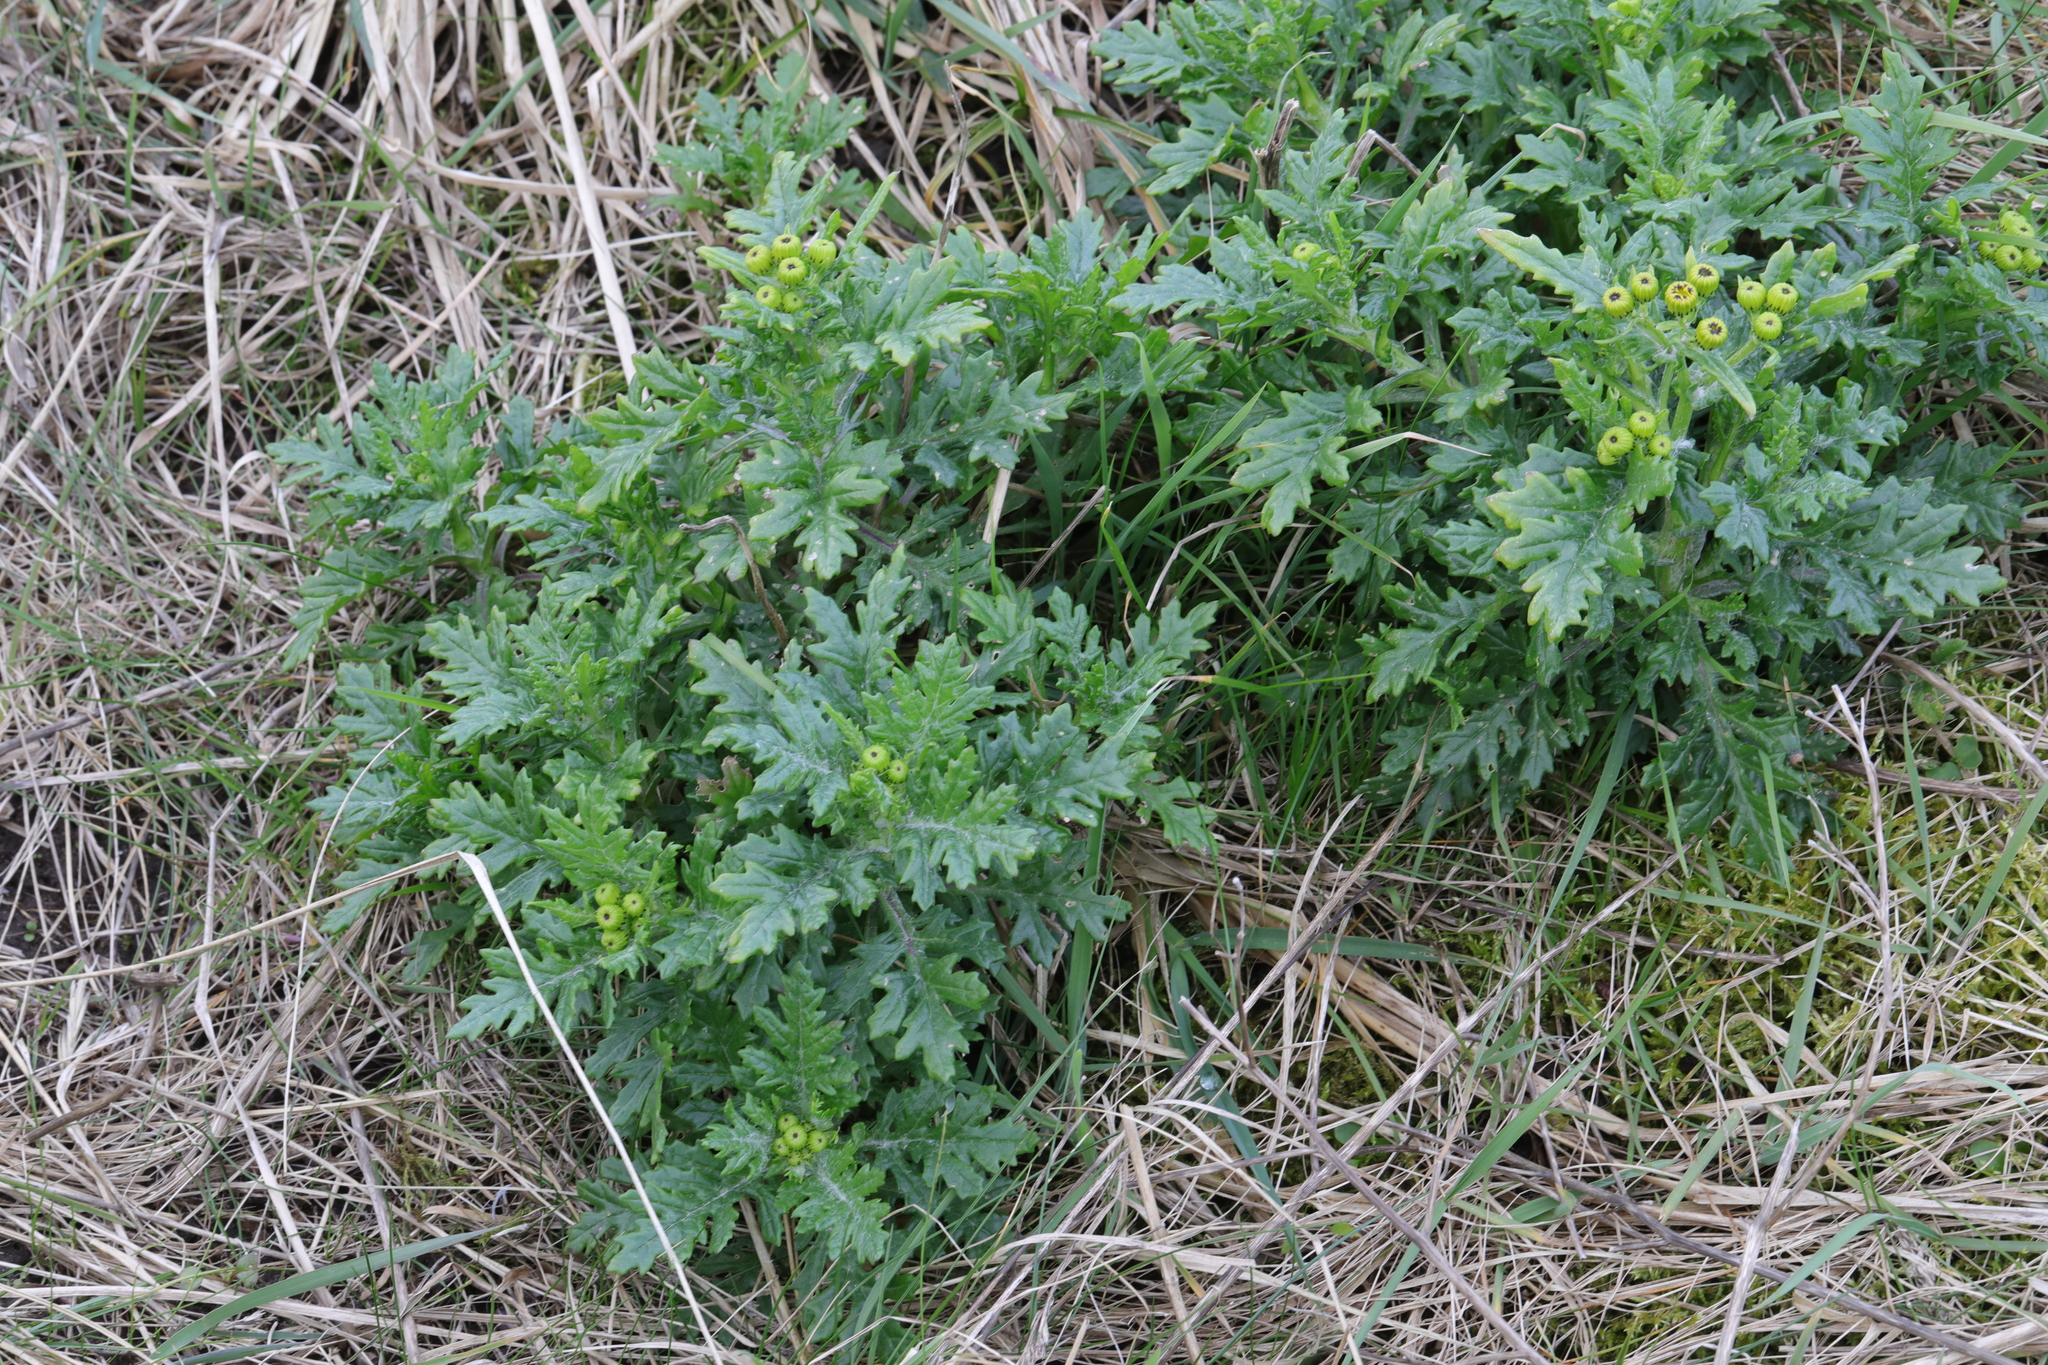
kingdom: Plantae
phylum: Tracheophyta
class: Magnoliopsida
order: Asterales
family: Asteraceae
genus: Senecio
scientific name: Senecio squalidus
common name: Oxford ragwort
